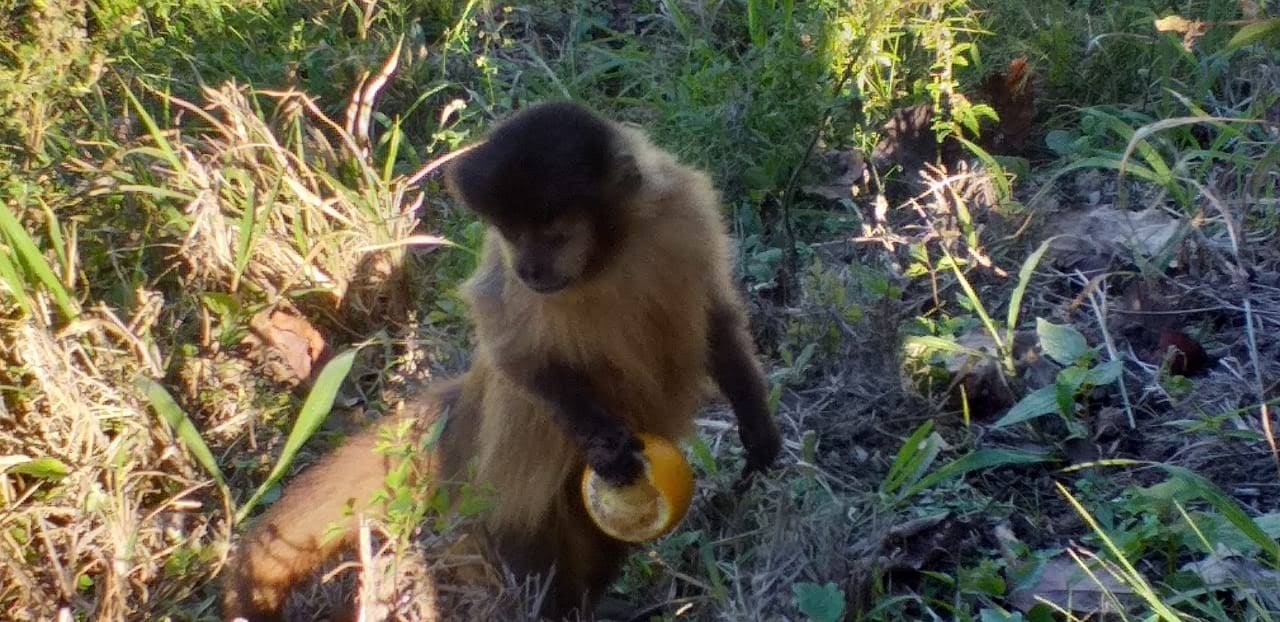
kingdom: Animalia
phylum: Chordata
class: Mammalia
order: Primates
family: Cebidae
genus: Sapajus
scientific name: Sapajus cay
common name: Hooded capuchin
